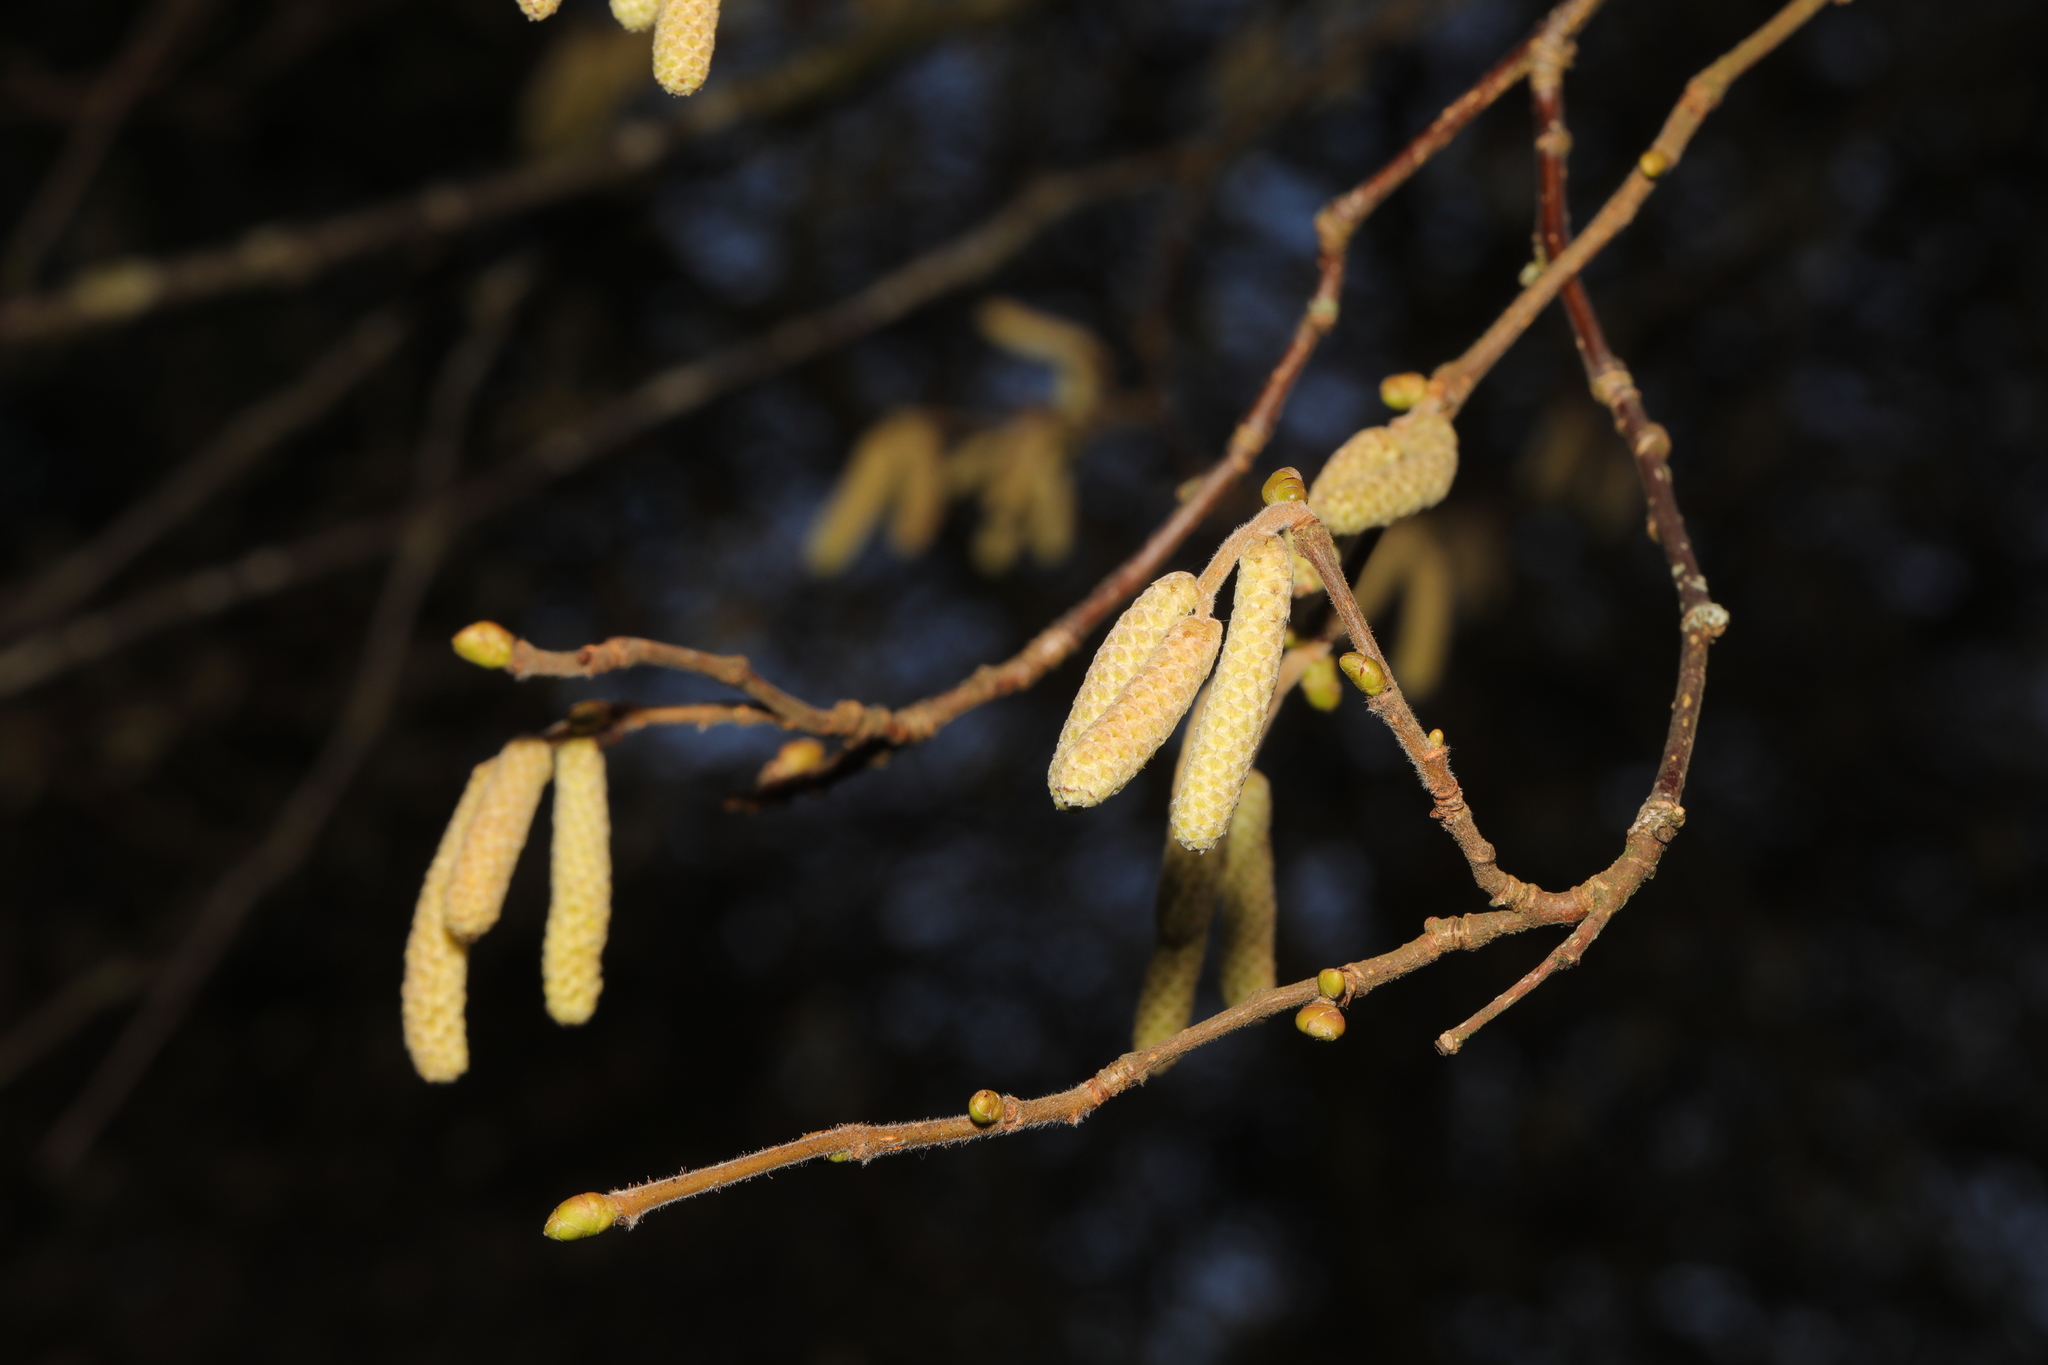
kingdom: Plantae
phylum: Tracheophyta
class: Magnoliopsida
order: Fagales
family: Betulaceae
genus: Corylus
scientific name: Corylus avellana
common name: European hazel
